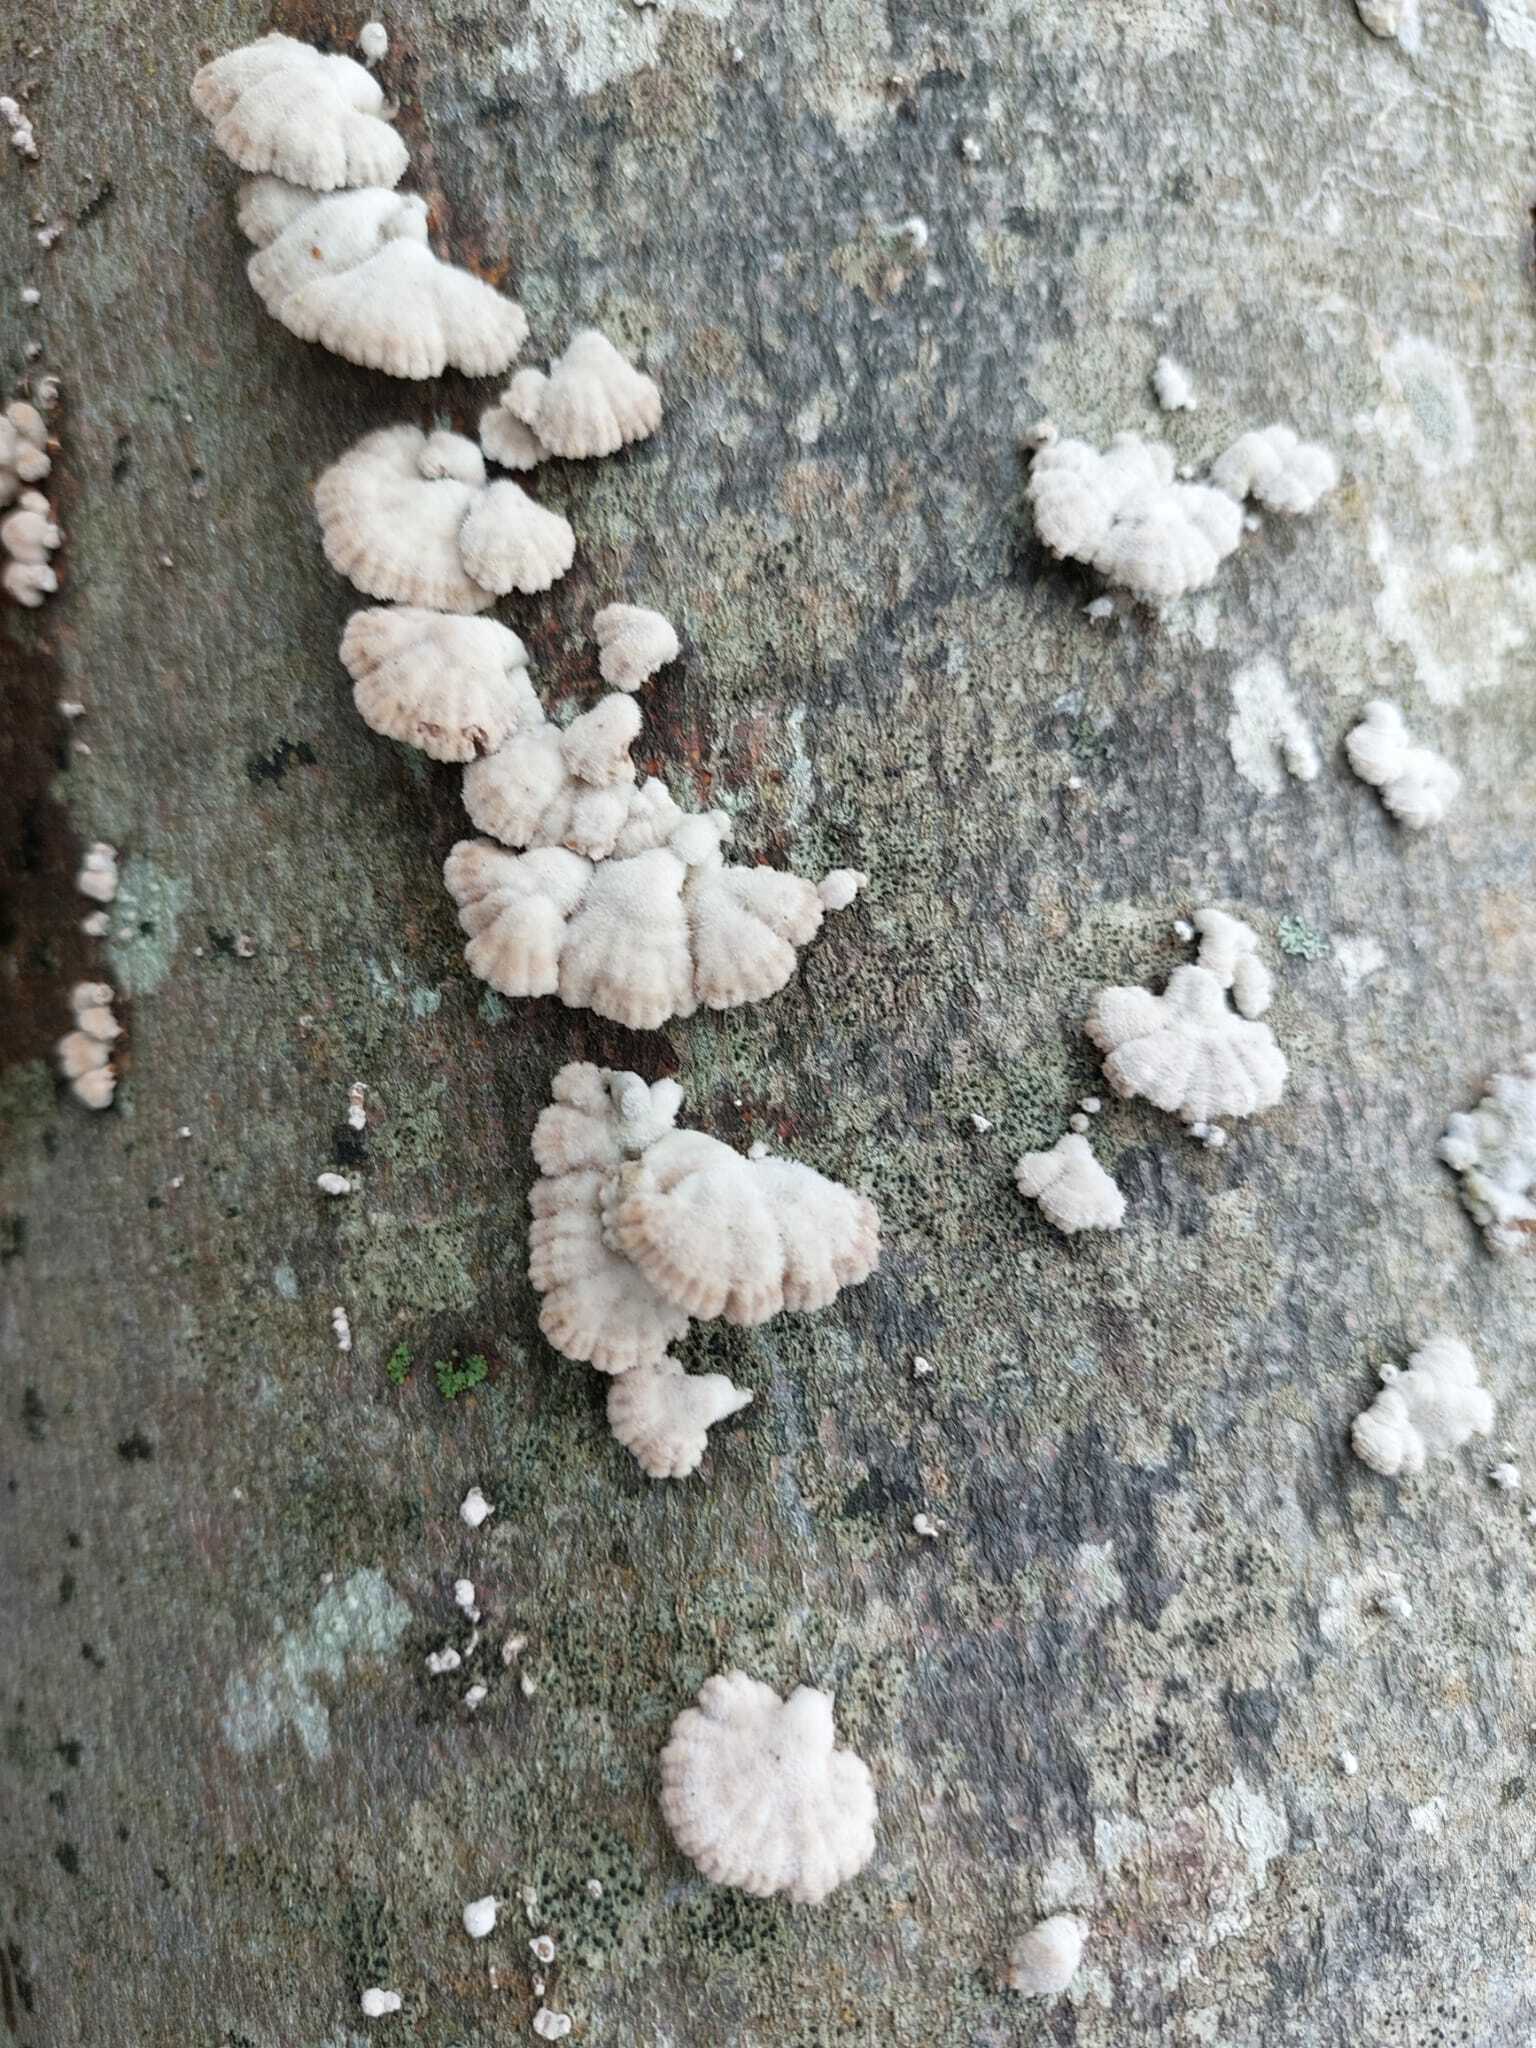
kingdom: Fungi
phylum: Basidiomycota
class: Agaricomycetes
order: Agaricales
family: Schizophyllaceae
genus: Schizophyllum
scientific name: Schizophyllum commune
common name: Common porecrust
